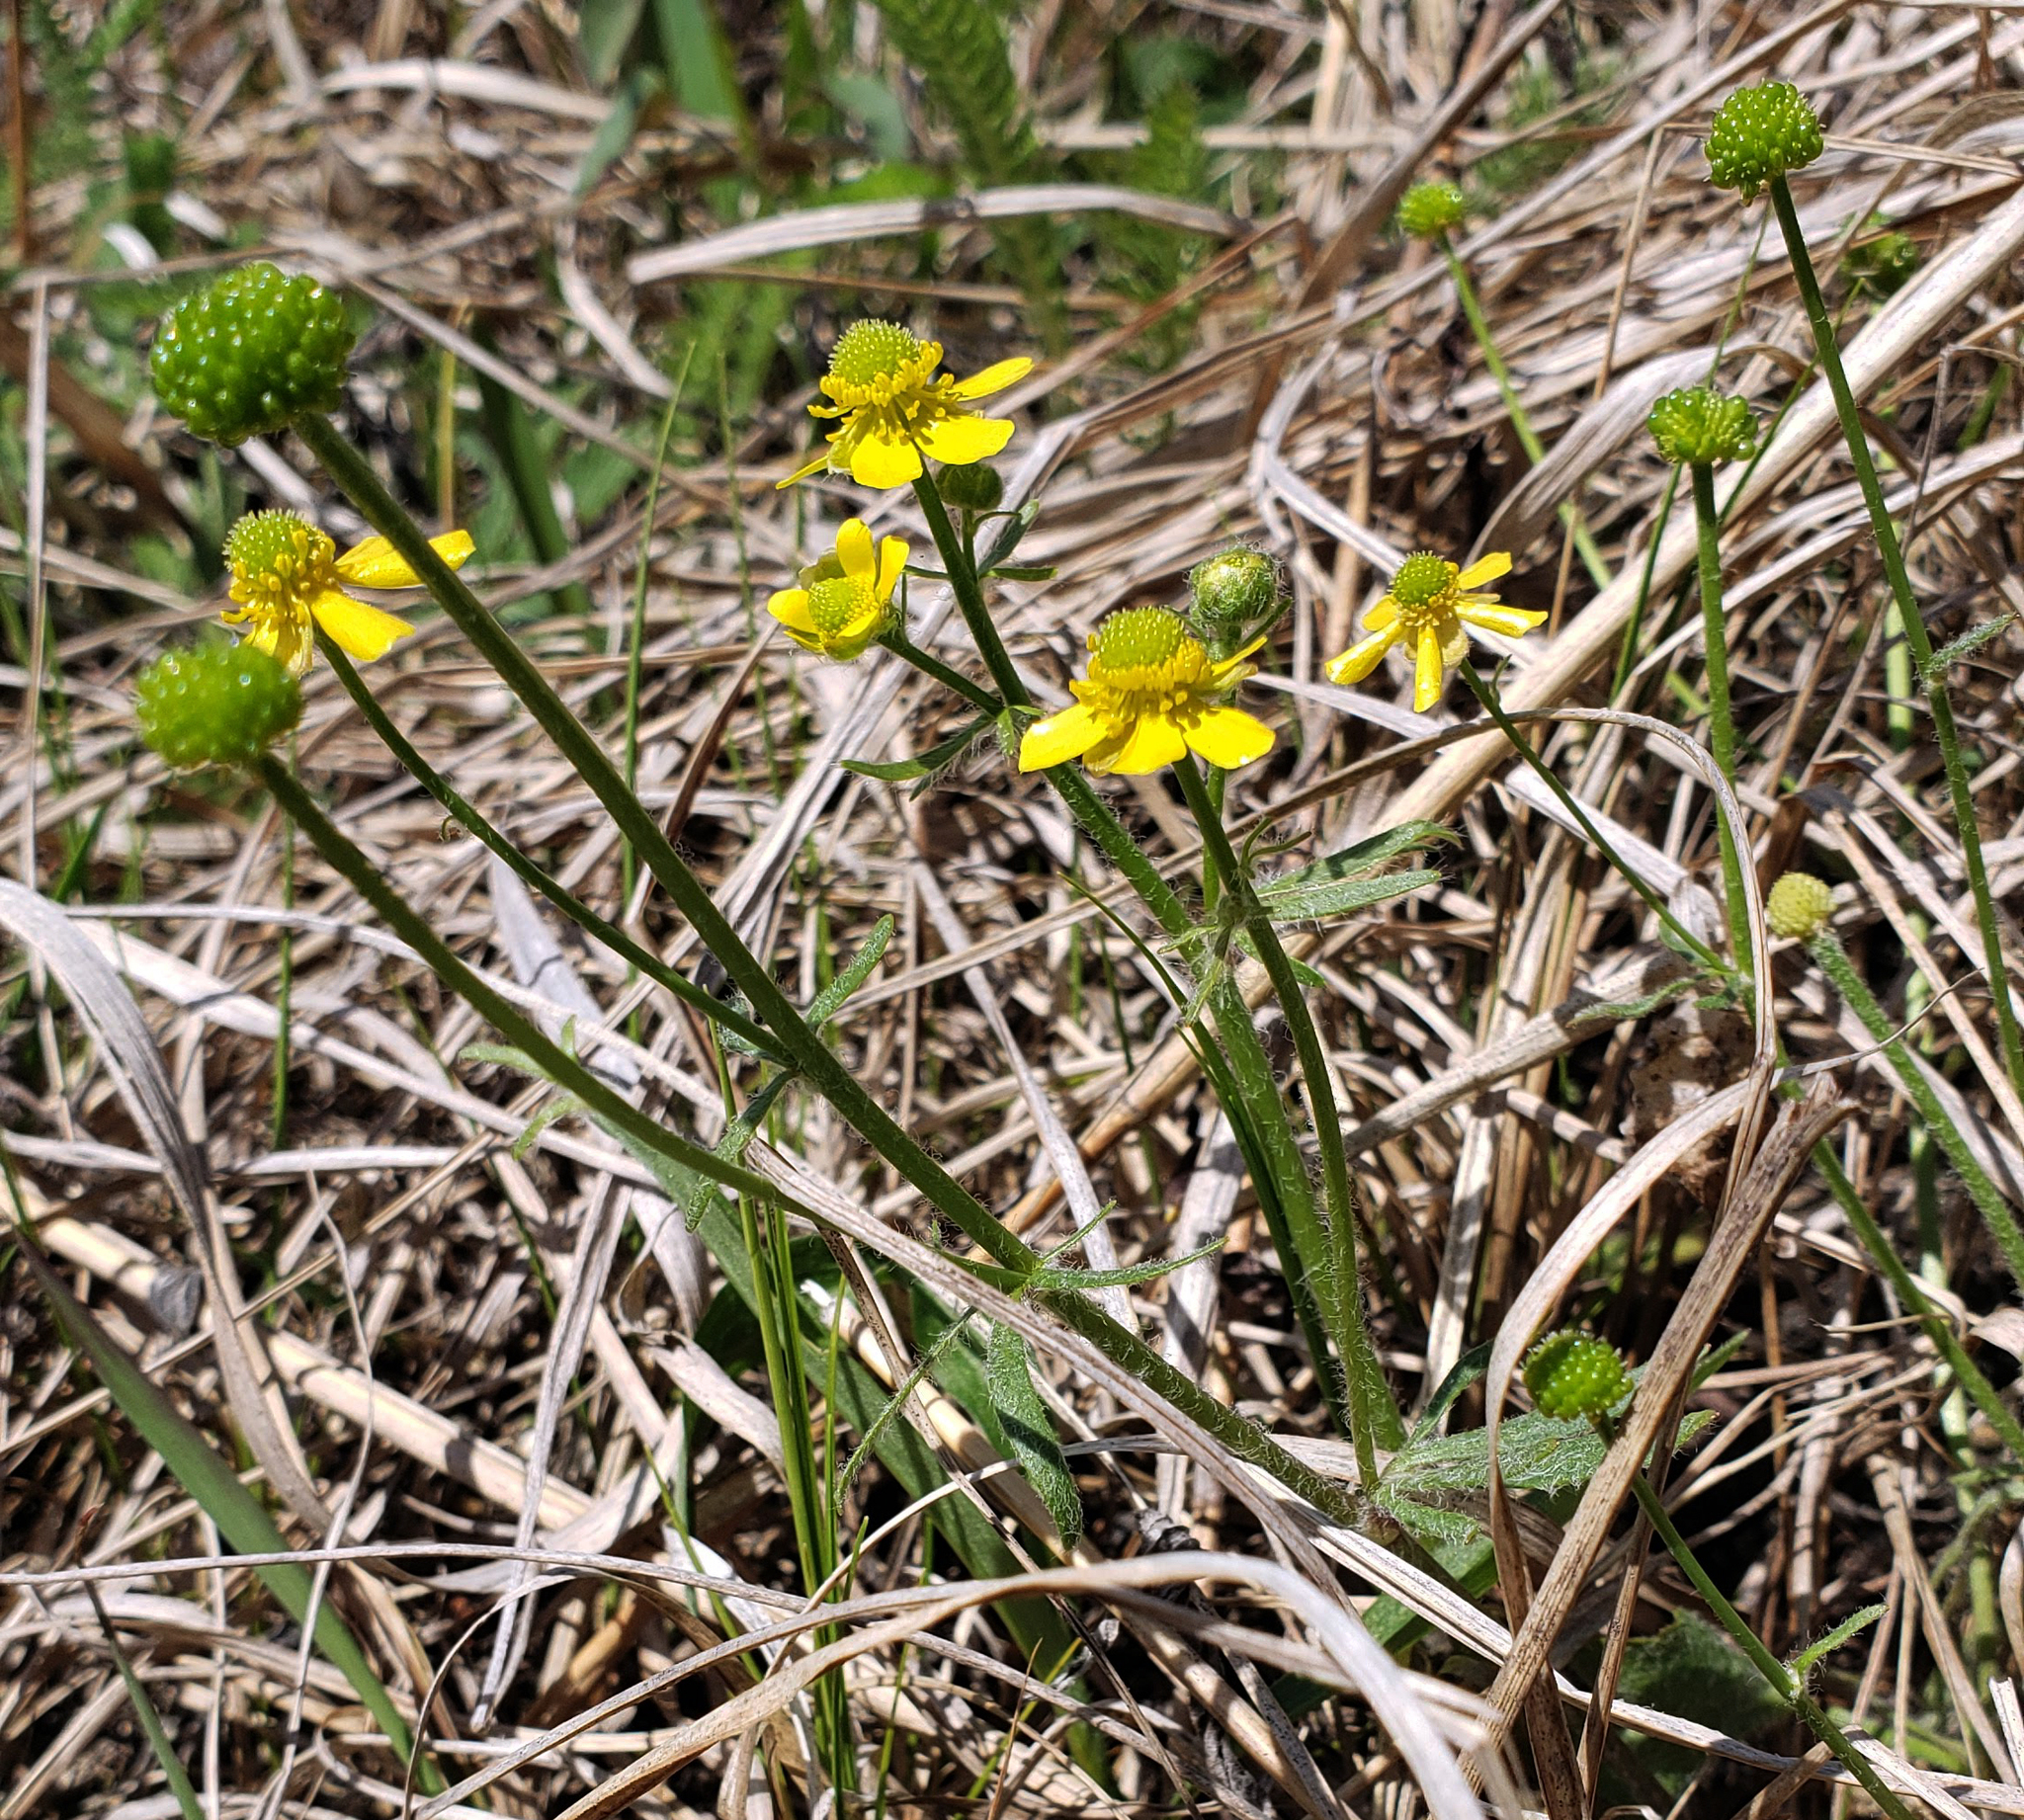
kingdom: Plantae
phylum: Tracheophyta
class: Magnoliopsida
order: Ranunculales
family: Ranunculaceae
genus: Ranunculus
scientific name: Ranunculus rhomboideus
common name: Prairie buttercup
